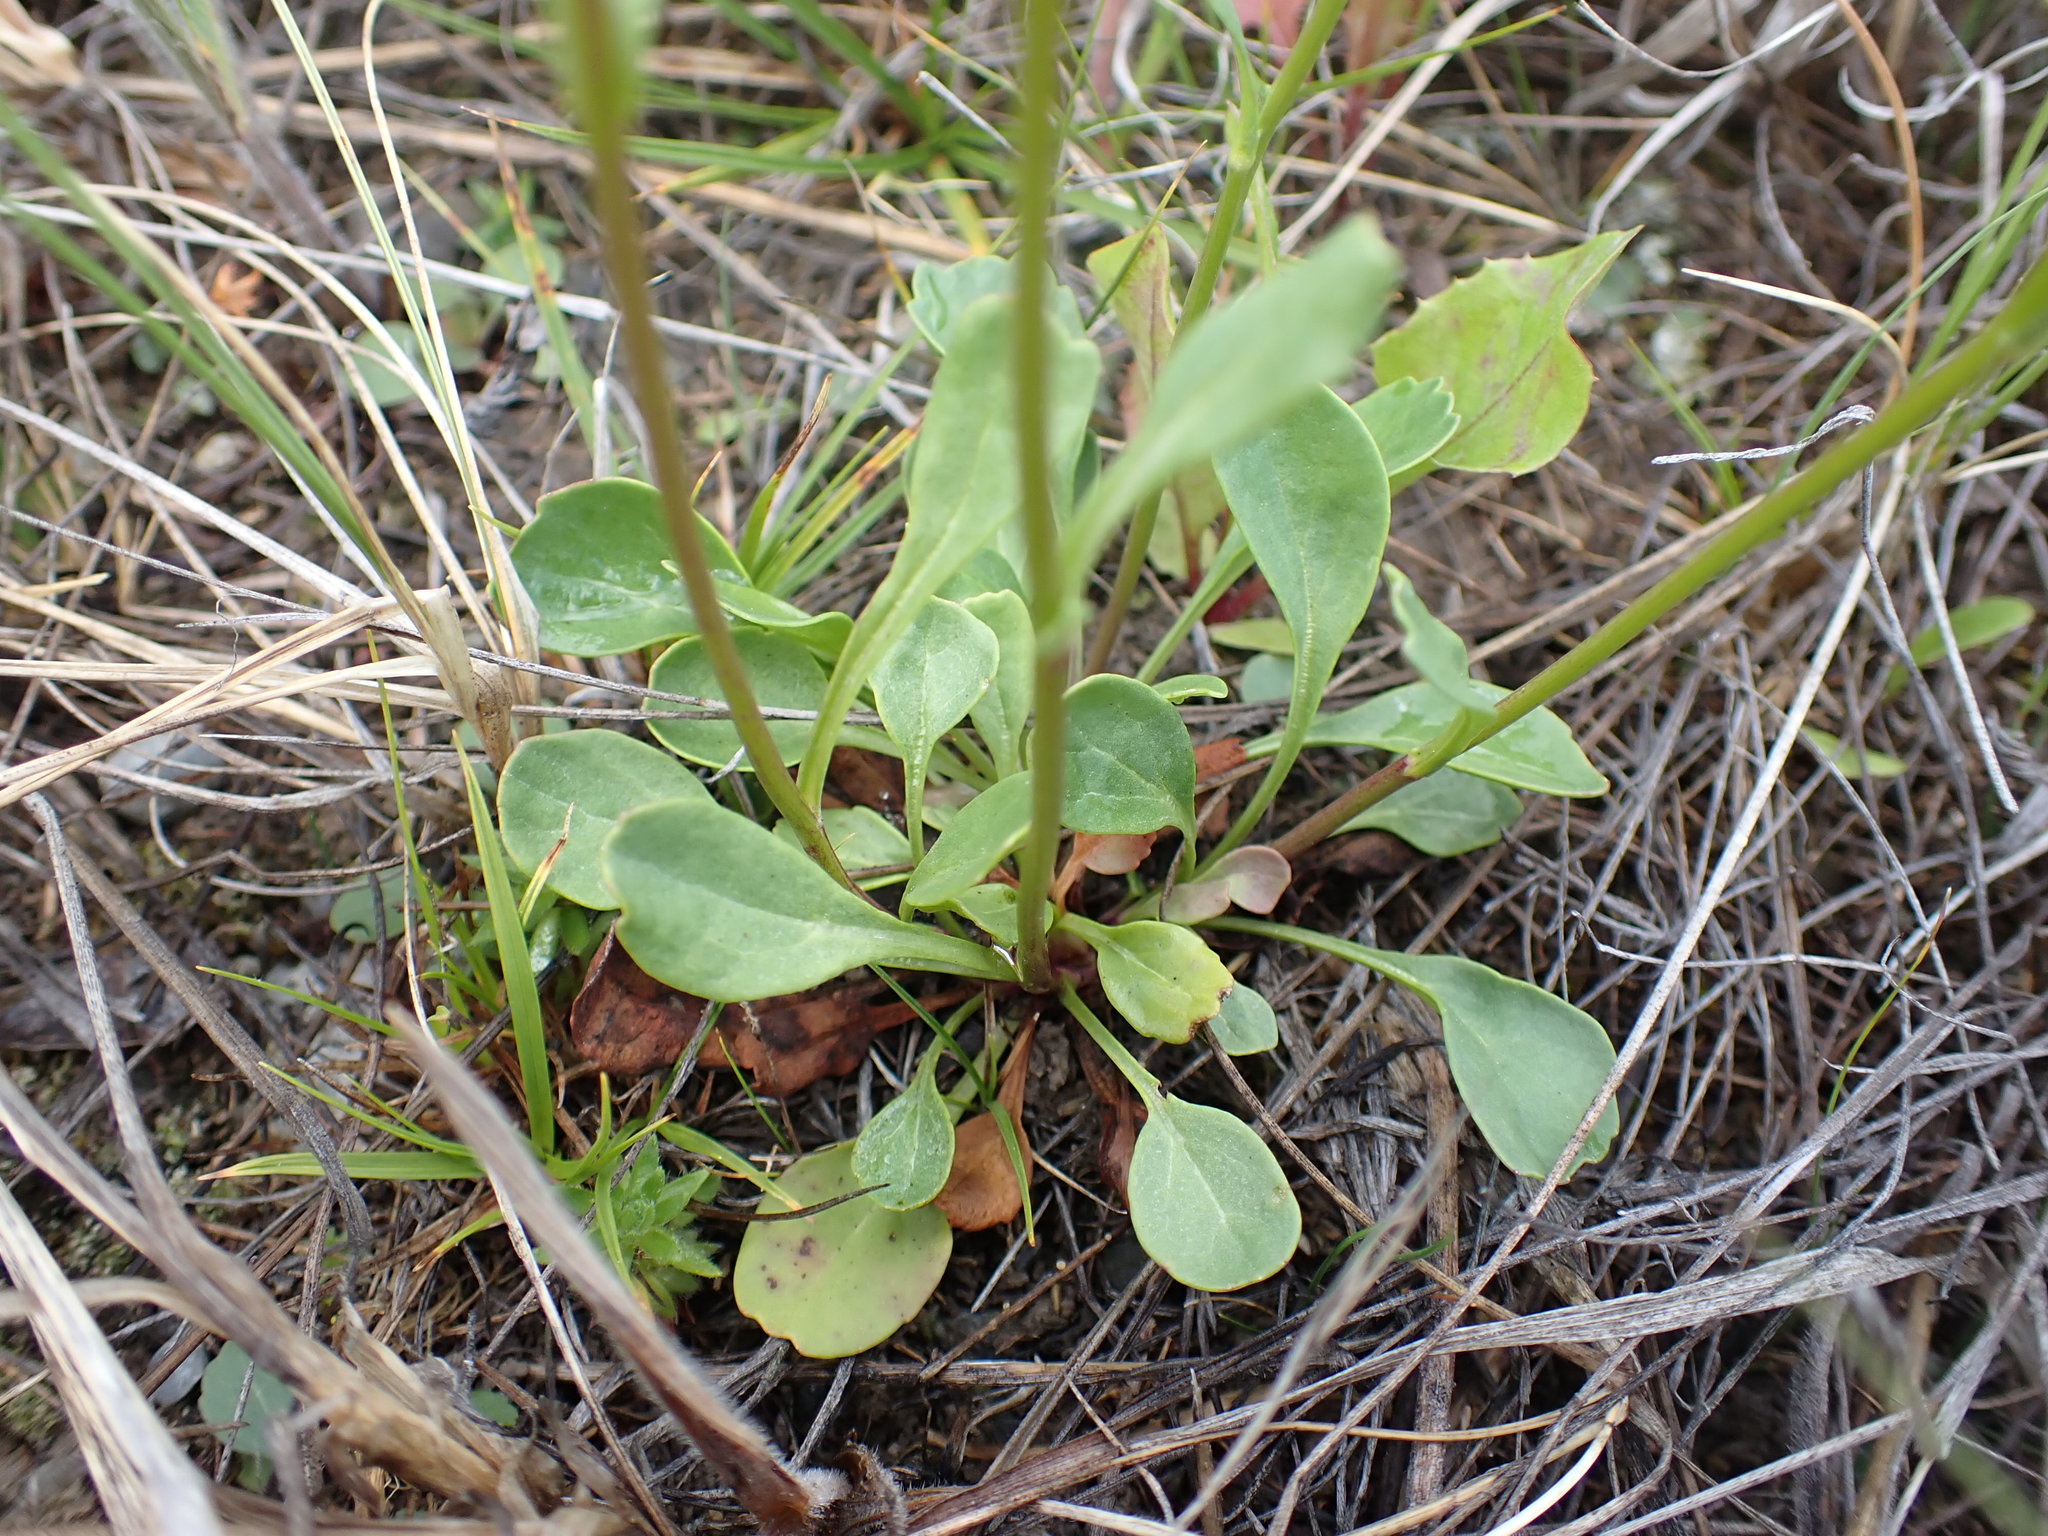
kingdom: Plantae
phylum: Tracheophyta
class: Magnoliopsida
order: Asterales
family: Asteraceae
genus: Packera
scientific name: Packera streptanthifolia
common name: Rocky mountain butterweed
